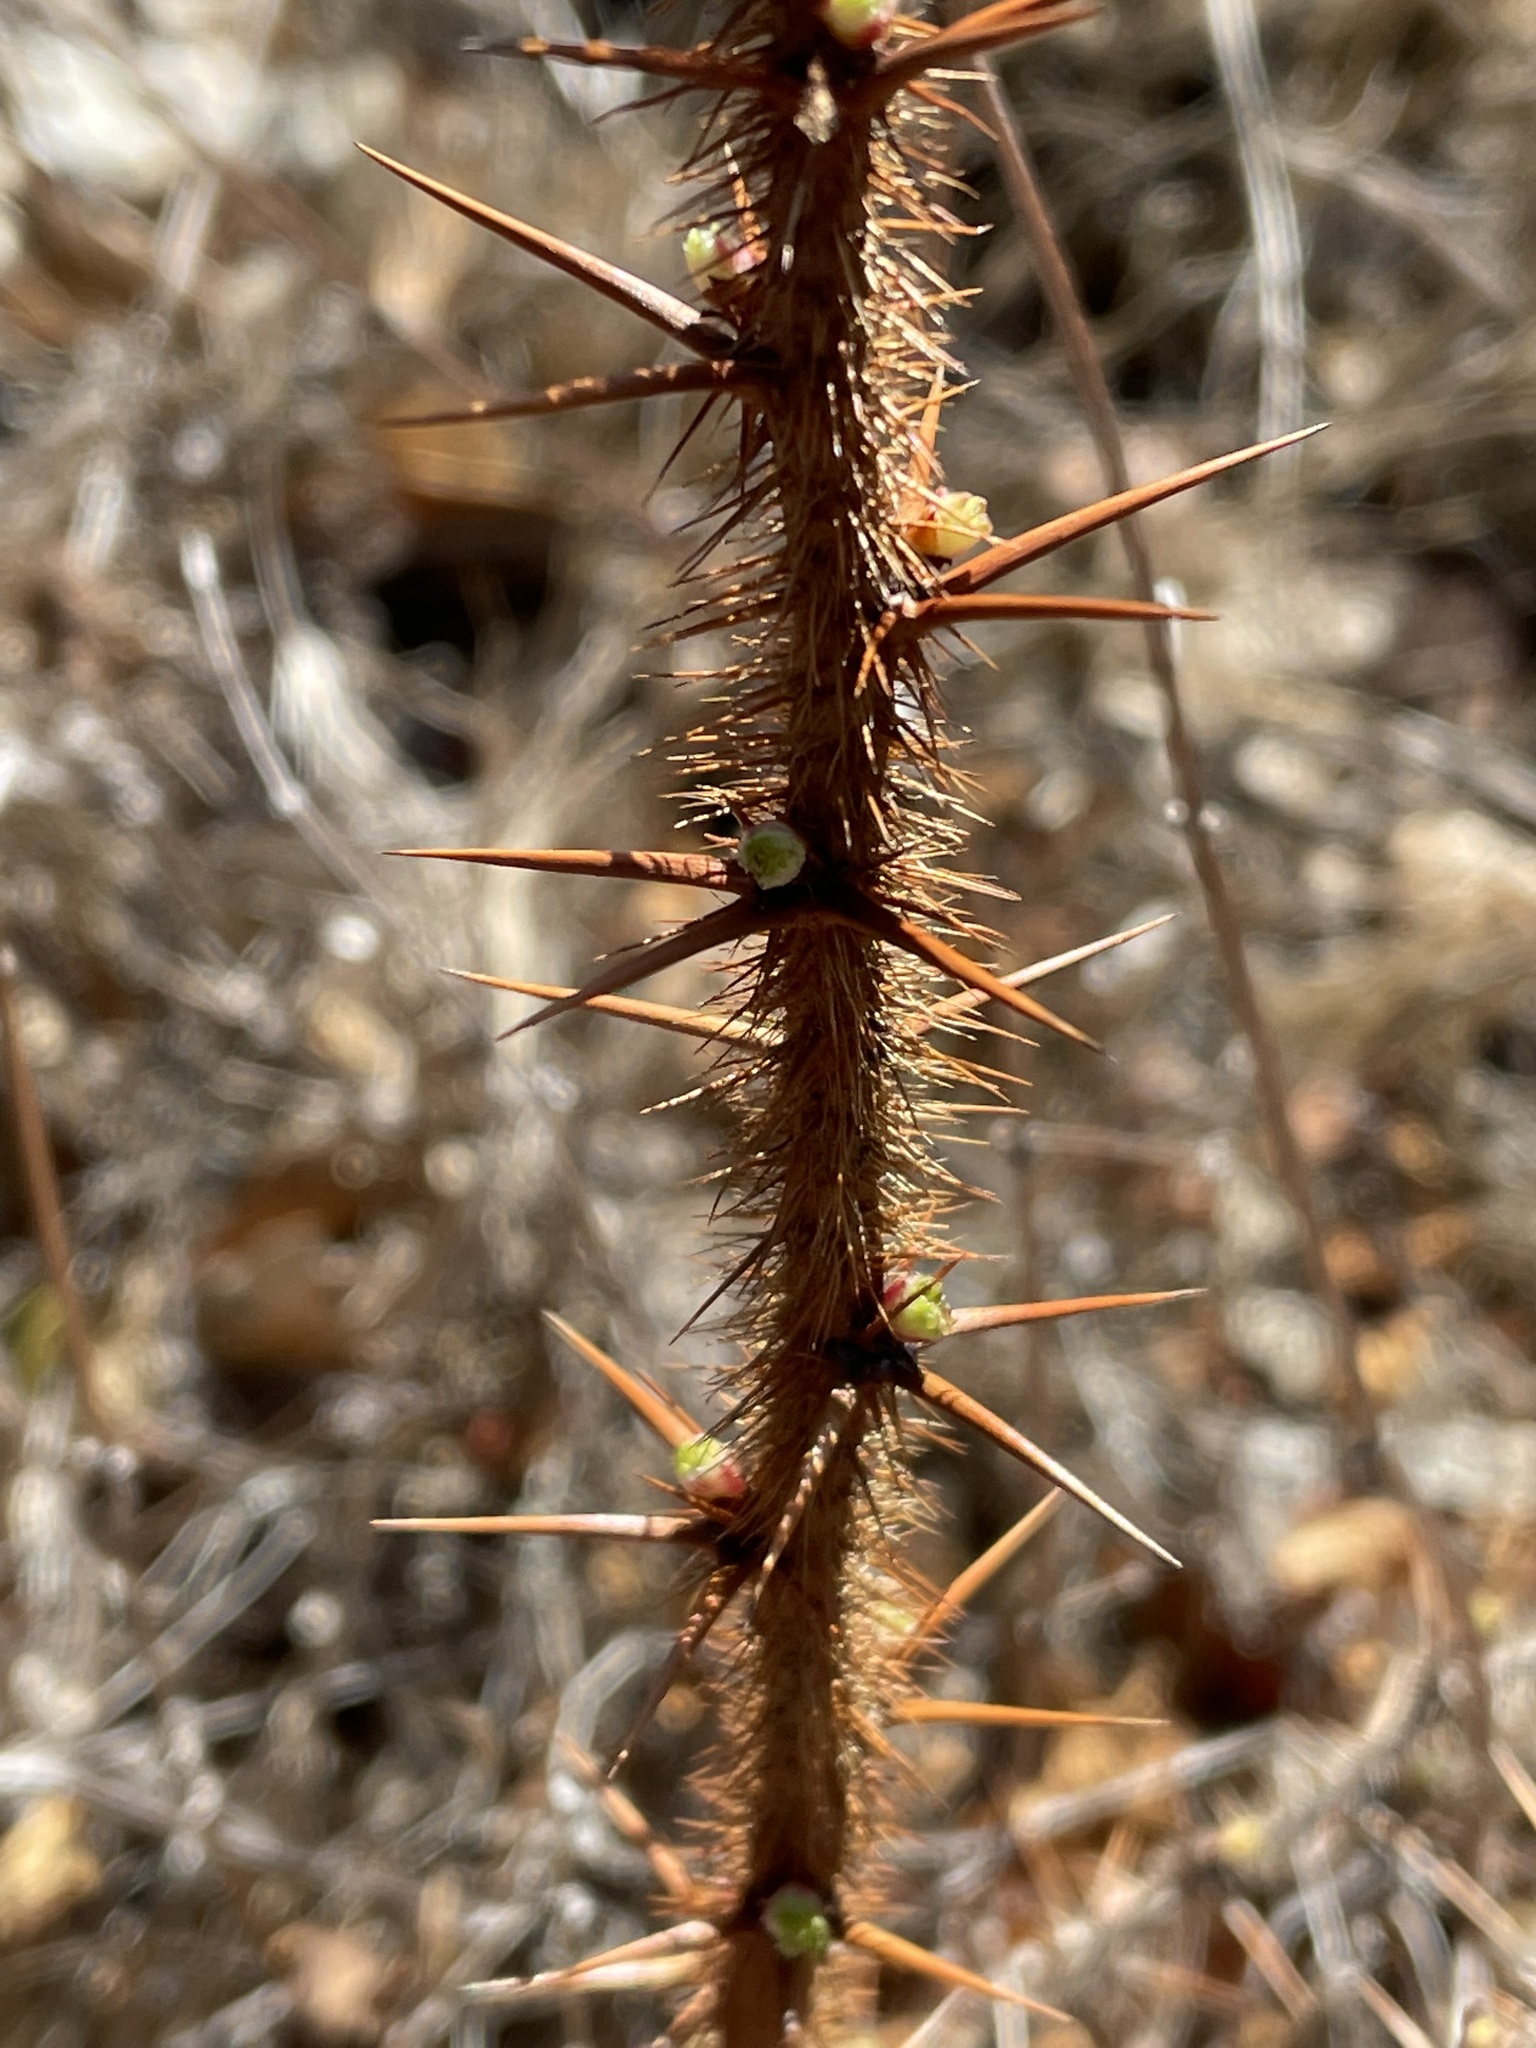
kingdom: Plantae
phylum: Tracheophyta
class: Magnoliopsida
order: Saxifragales
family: Grossulariaceae
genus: Ribes
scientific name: Ribes speciosum
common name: Fuchsia-flower gooseberry
